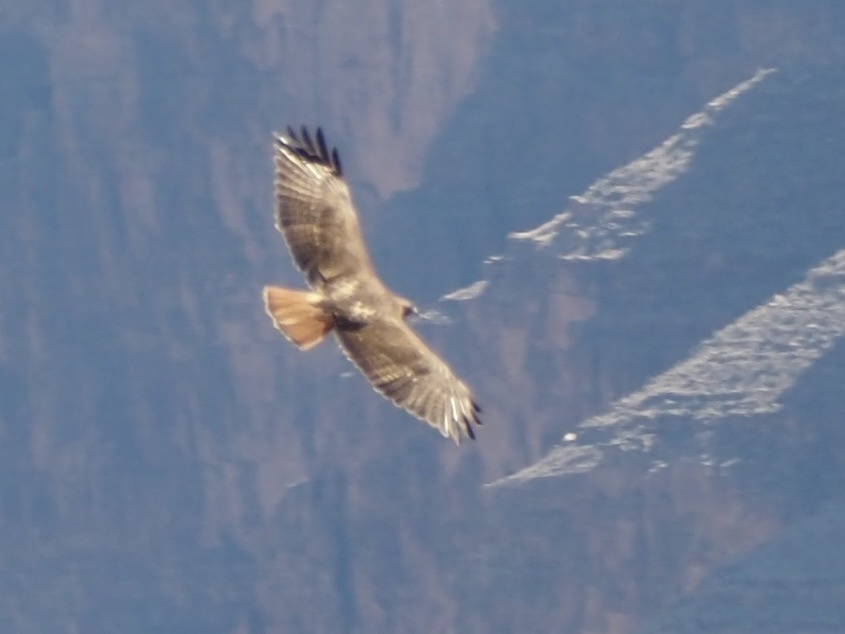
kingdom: Animalia
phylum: Chordata
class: Aves
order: Accipitriformes
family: Accipitridae
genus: Buteo
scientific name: Buteo jamaicensis
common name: Red-tailed hawk
